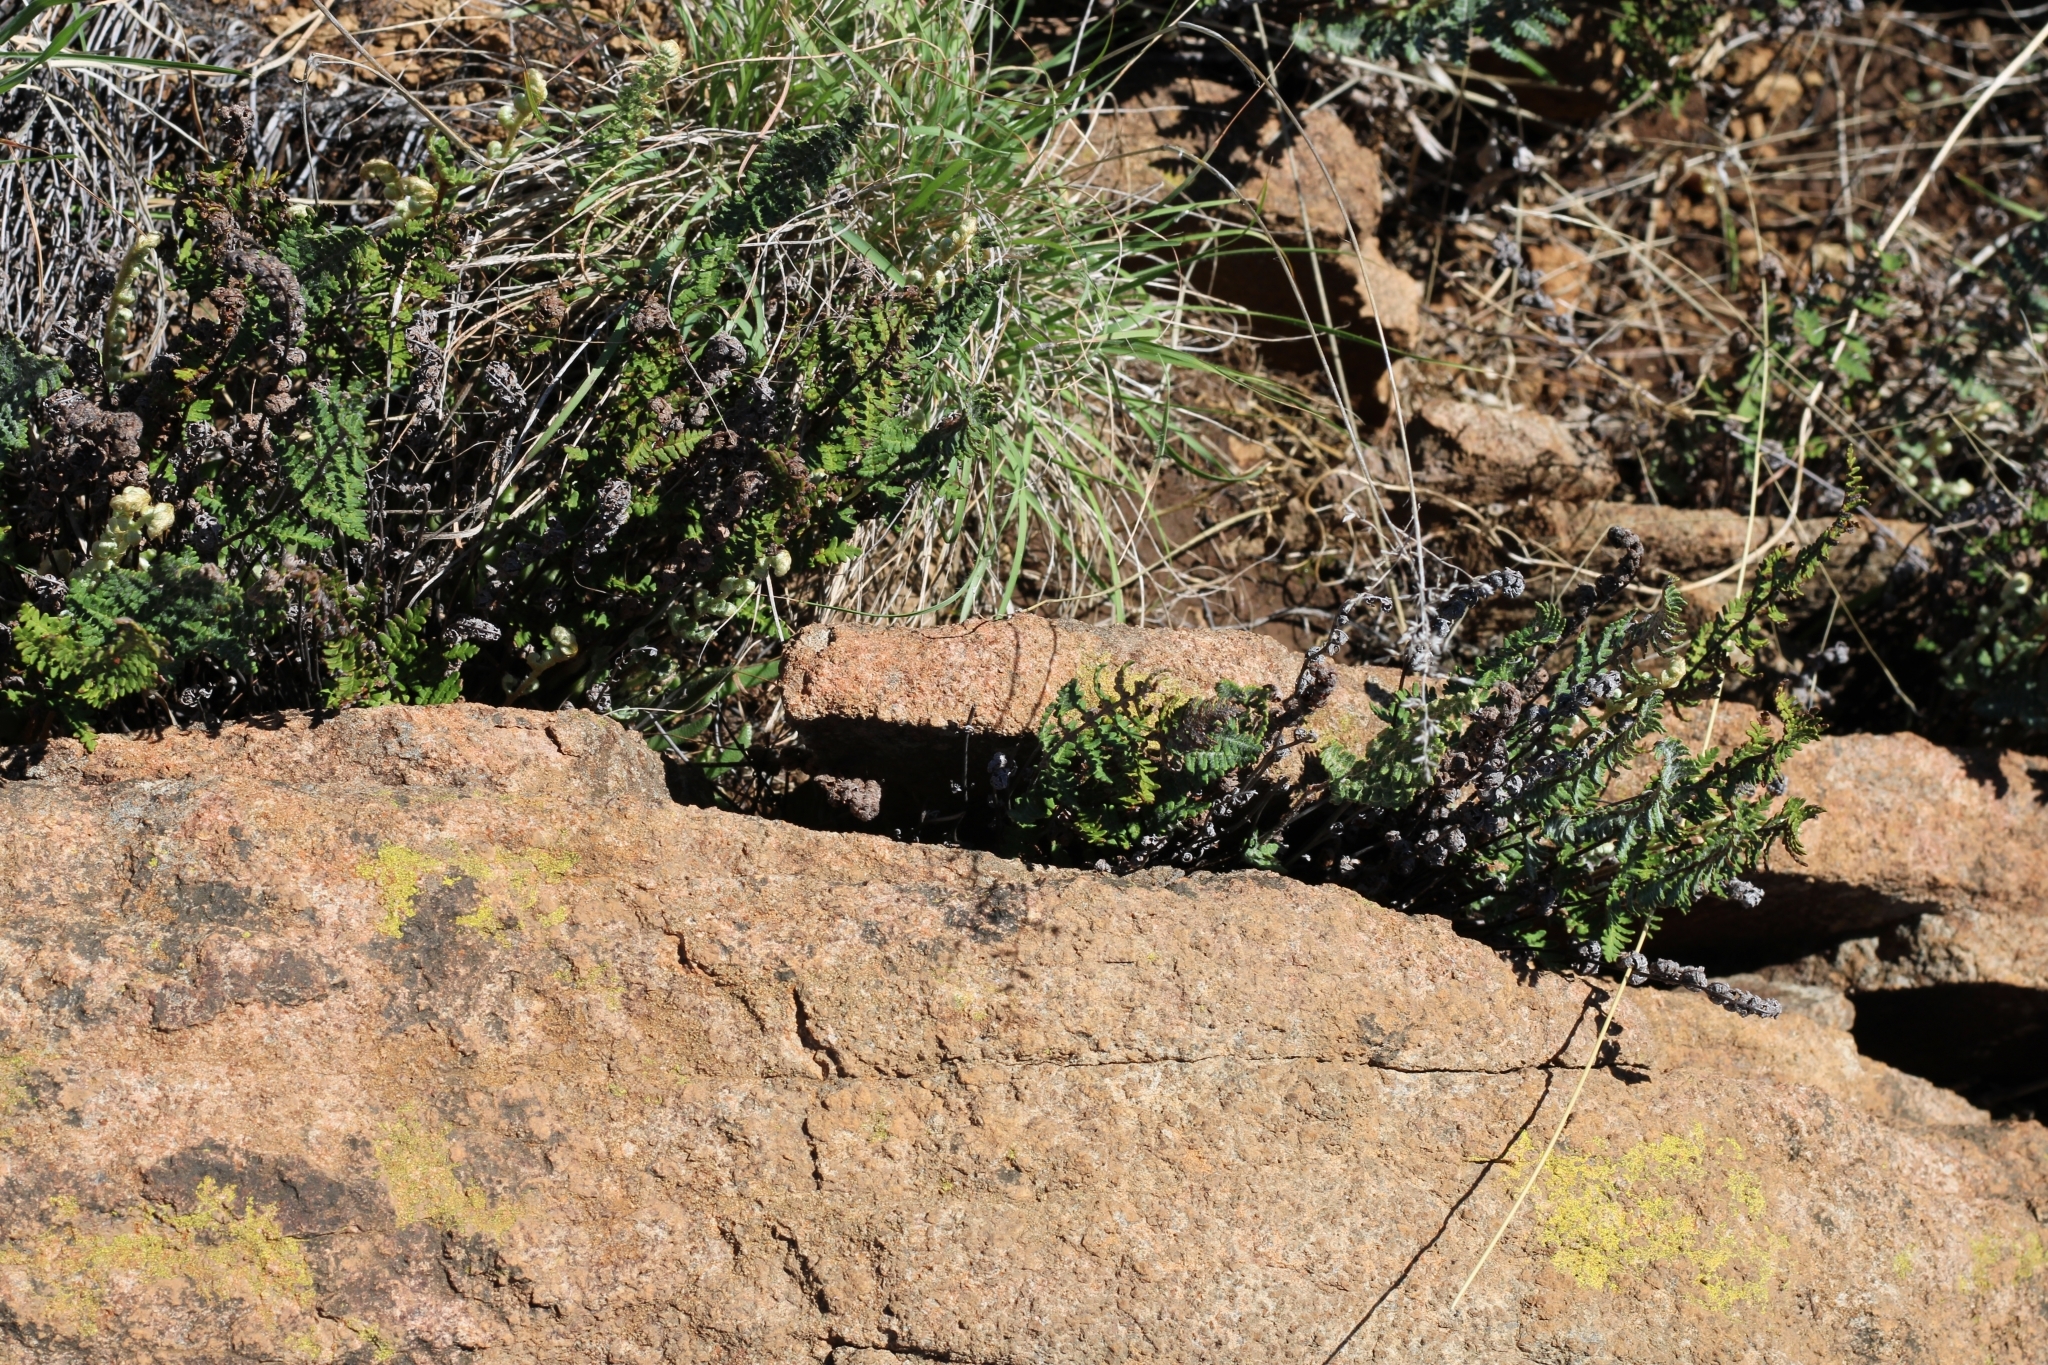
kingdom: Plantae
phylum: Tracheophyta
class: Polypodiopsida
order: Polypodiales
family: Pteridaceae
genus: Cheilanthes
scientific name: Cheilanthes eckloniana
